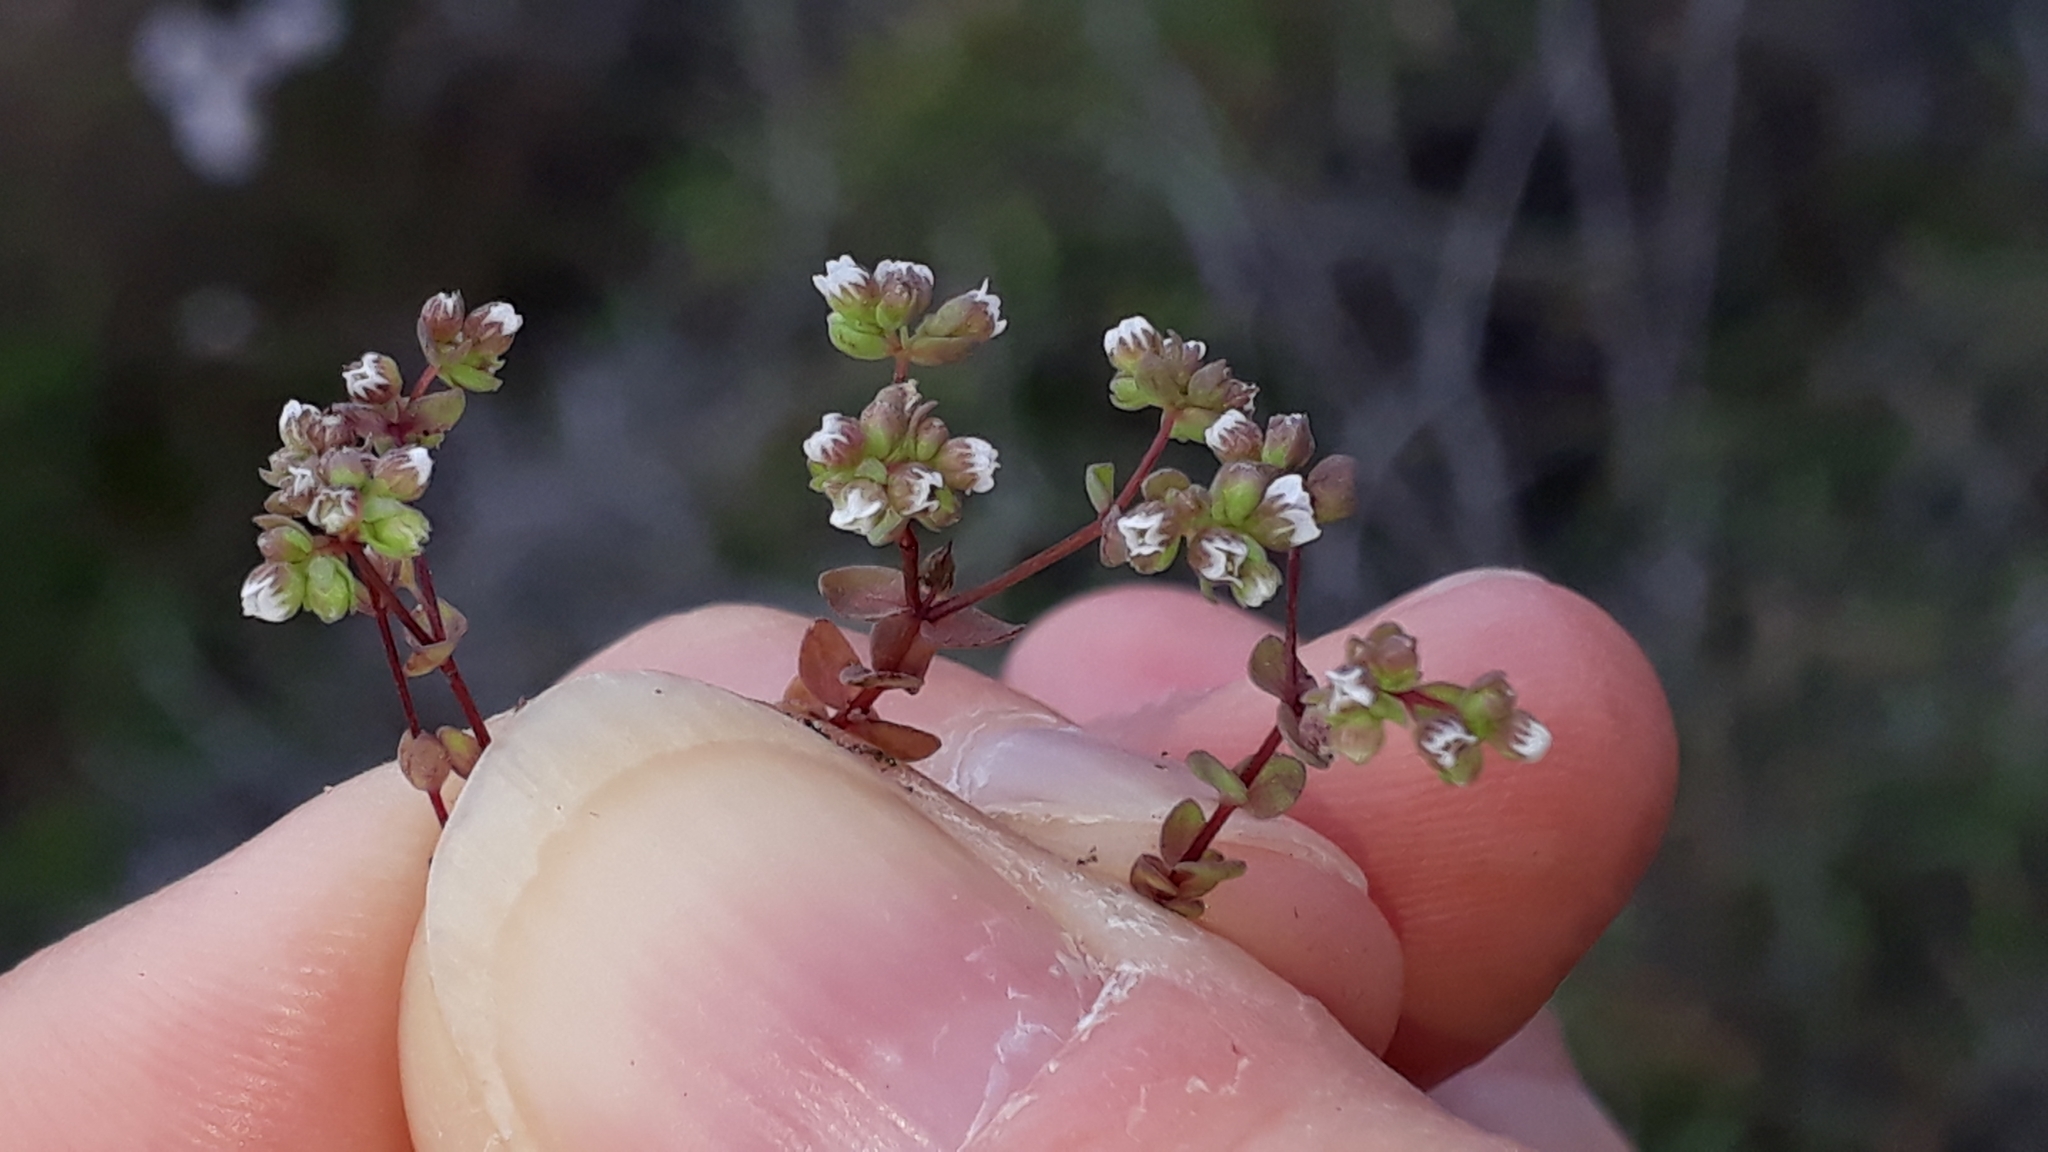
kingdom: Plantae
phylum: Tracheophyta
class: Magnoliopsida
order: Malpighiales
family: Linaceae
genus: Radiola
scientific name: Radiola linoides
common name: Allseed
